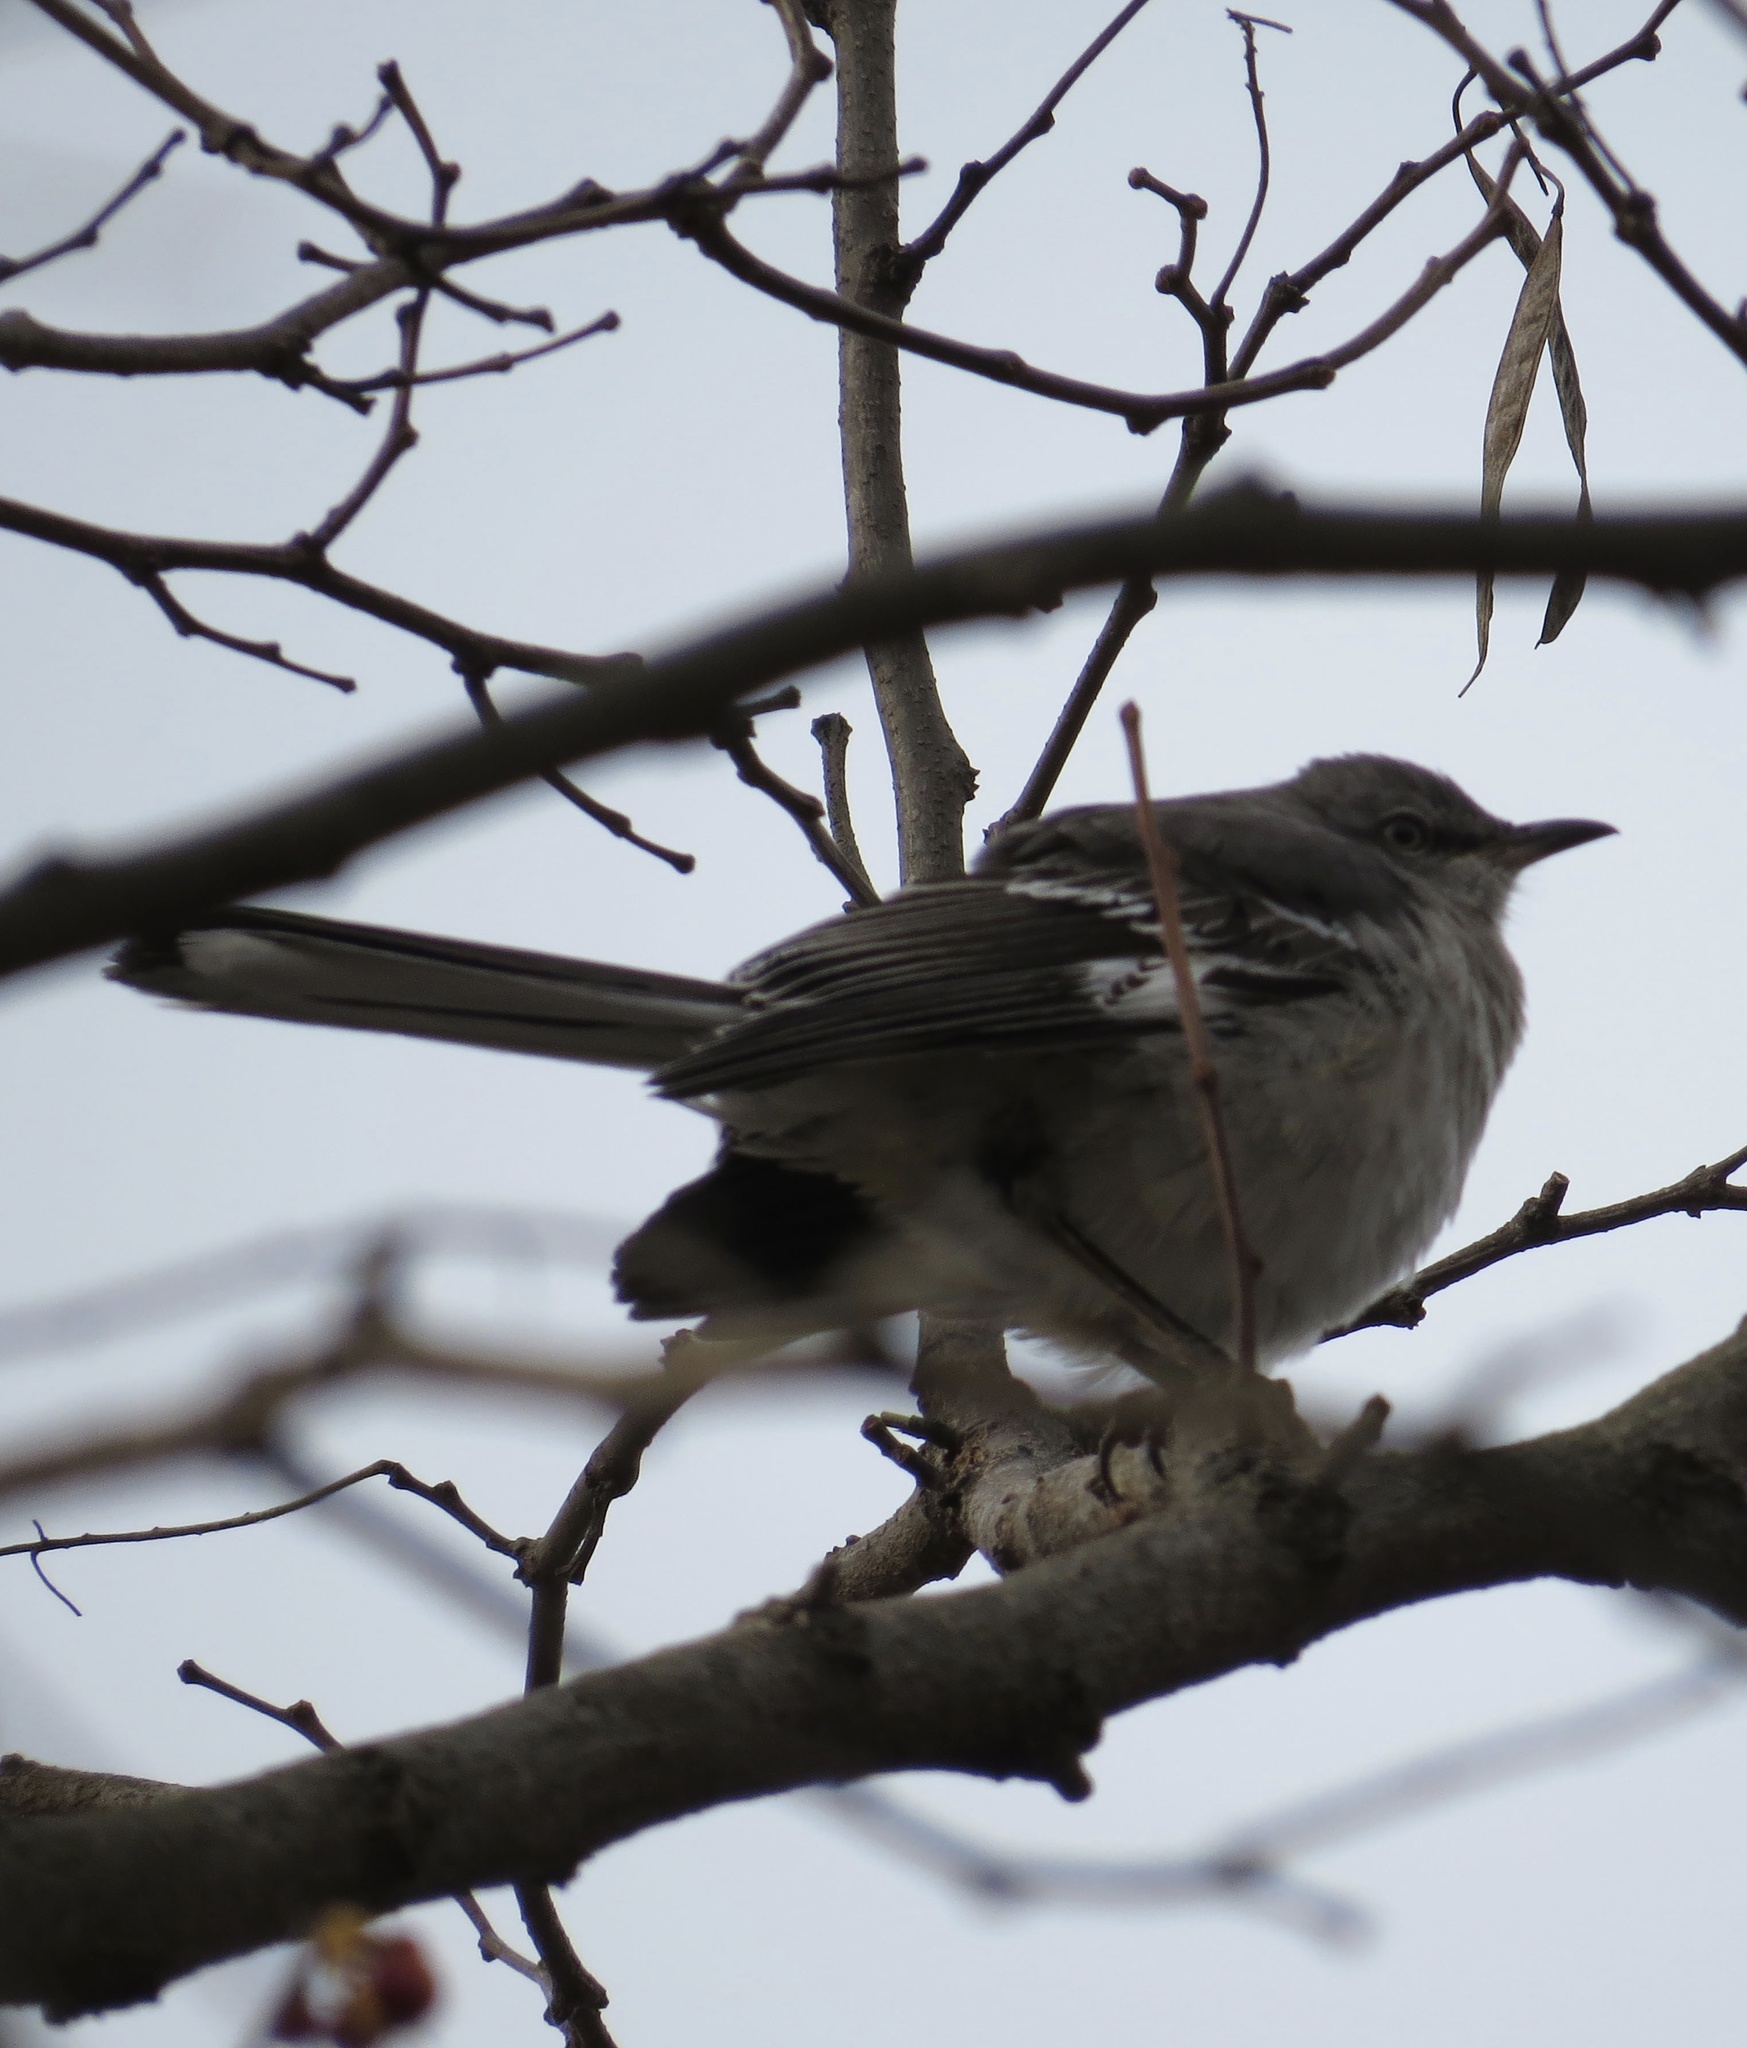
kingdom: Animalia
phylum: Chordata
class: Aves
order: Passeriformes
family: Mimidae
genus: Mimus
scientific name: Mimus polyglottos
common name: Northern mockingbird
